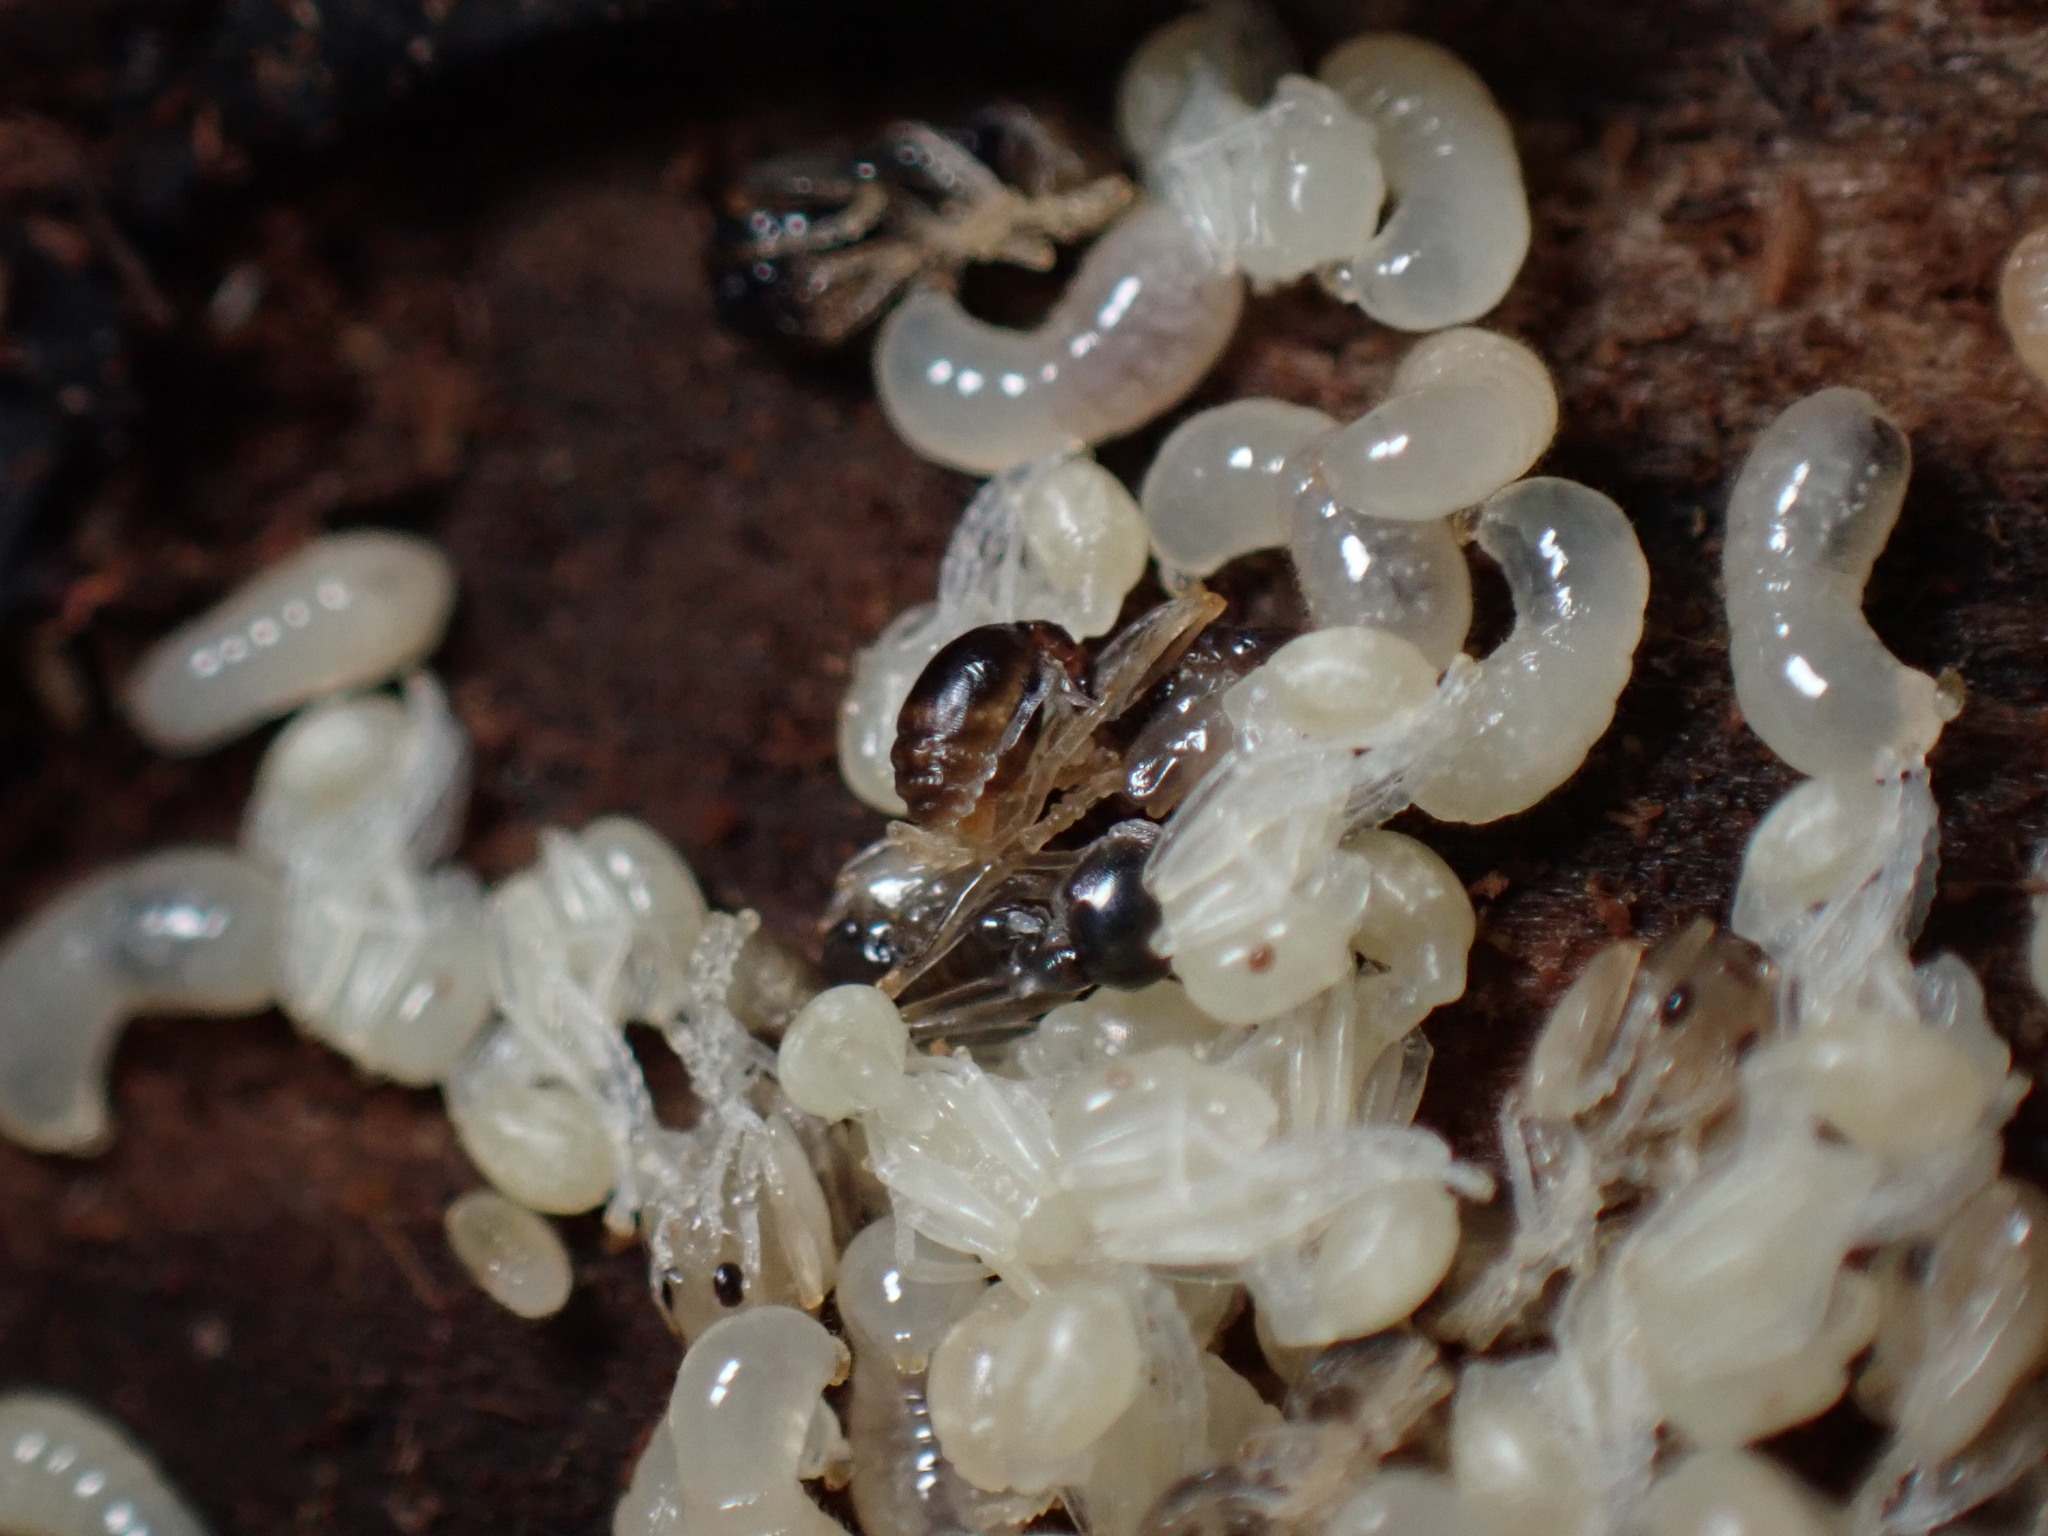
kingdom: Animalia
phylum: Arthropoda
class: Insecta
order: Hymenoptera
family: Formicidae
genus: Aphaenogaster
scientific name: Aphaenogaster rudis
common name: Winnow ant
